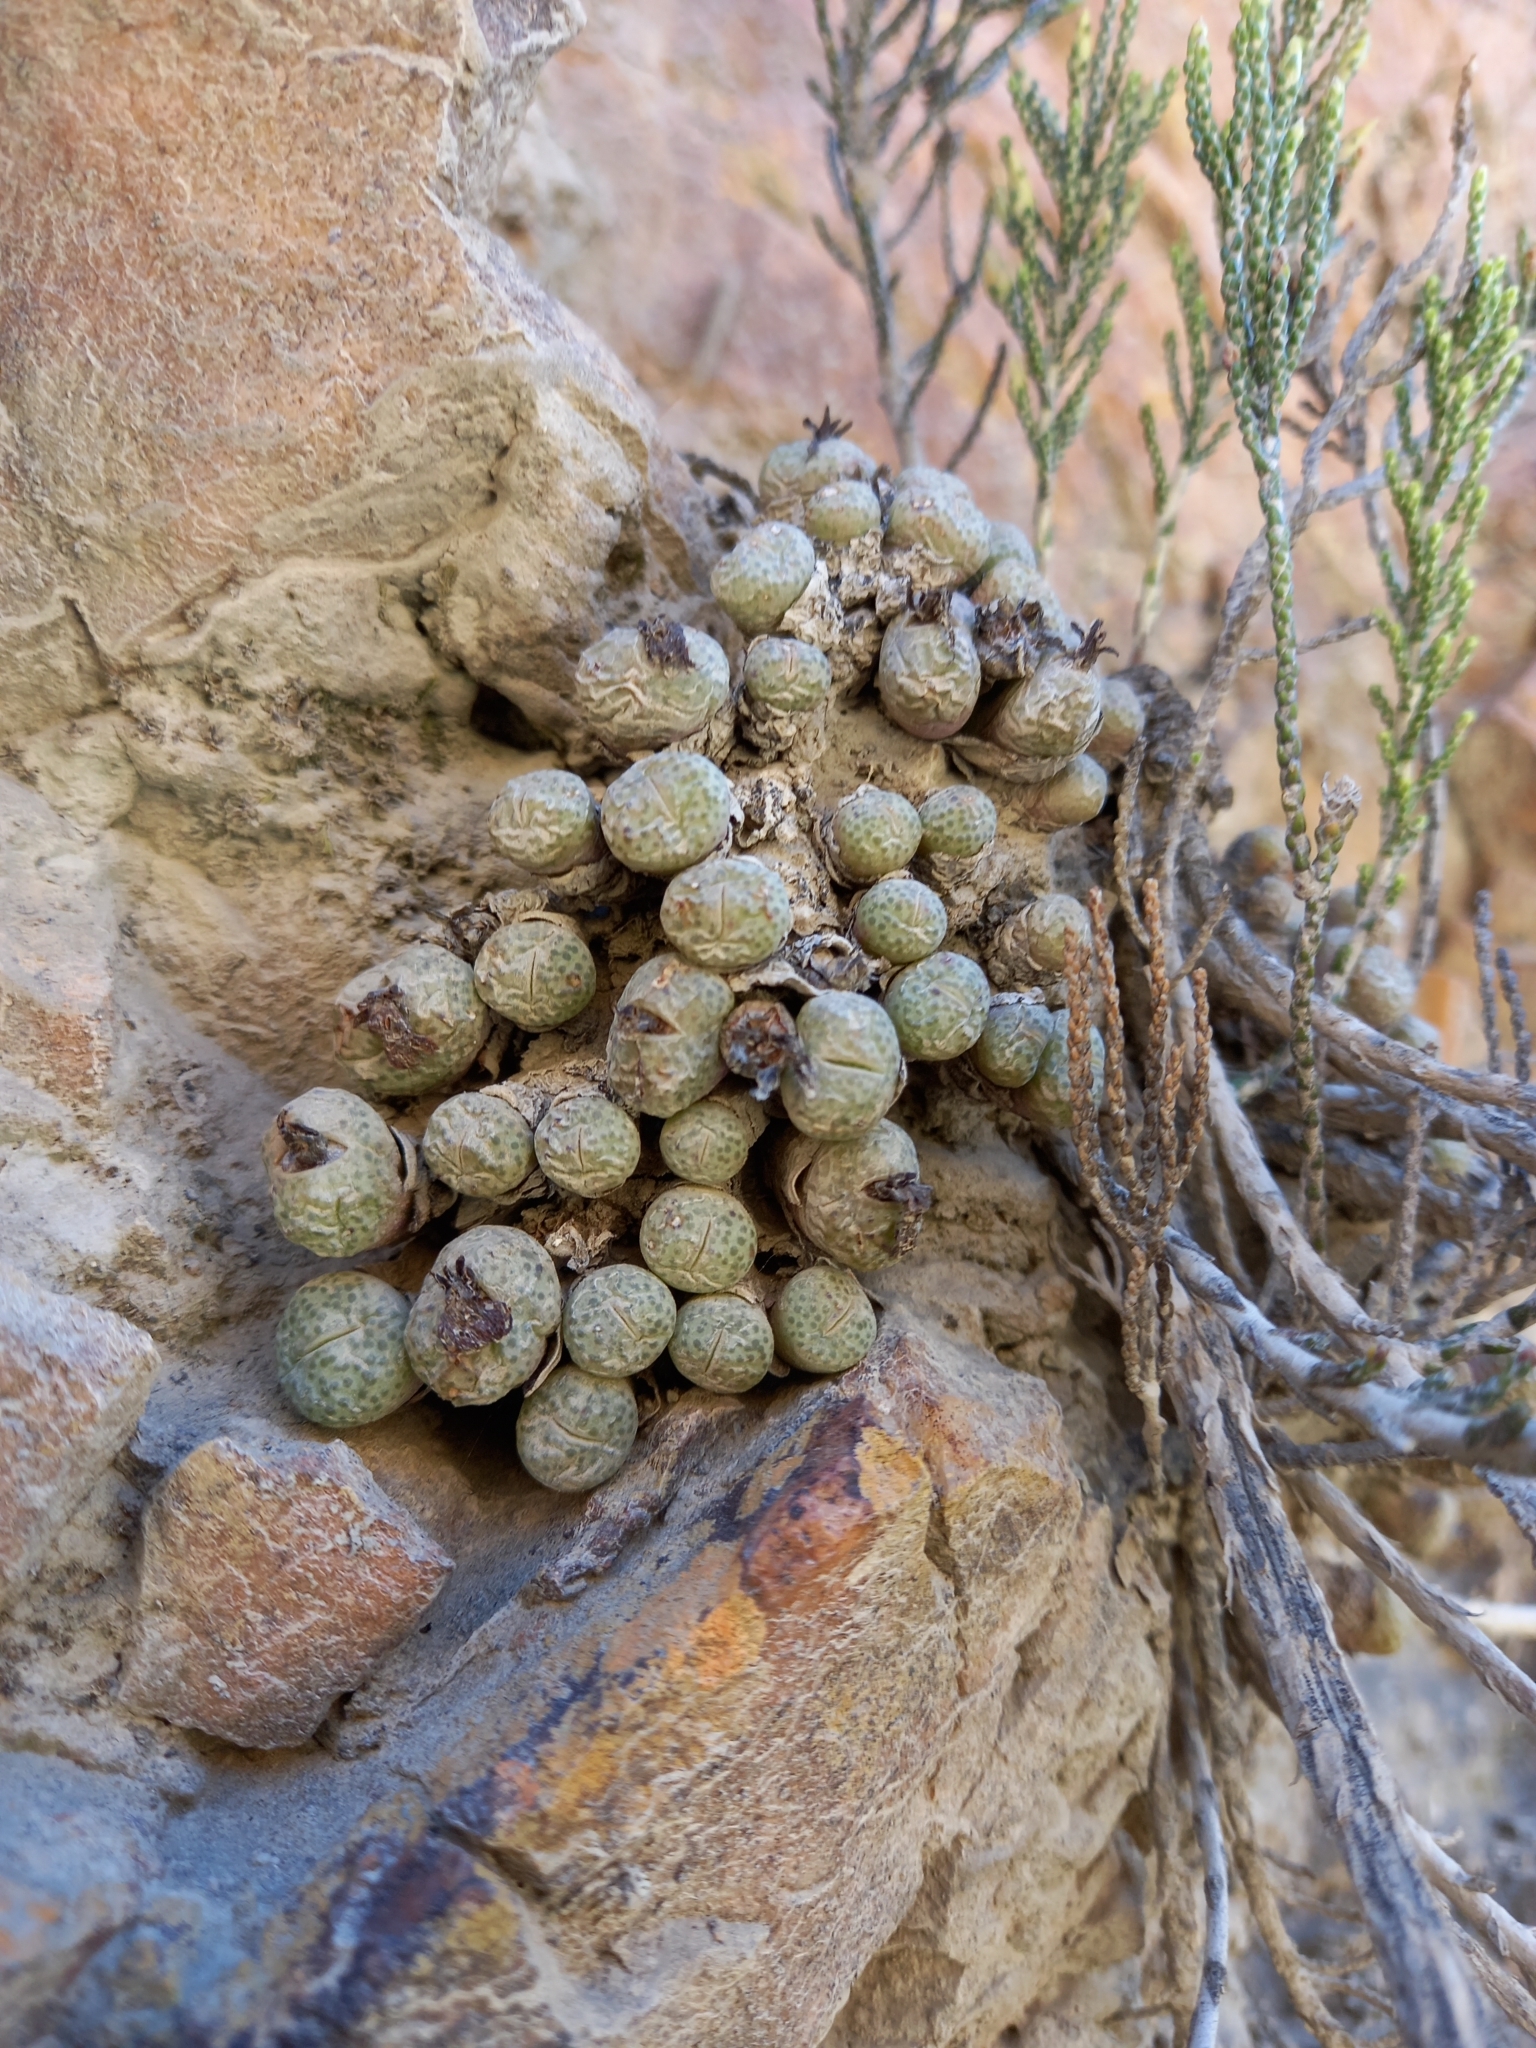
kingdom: Plantae
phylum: Tracheophyta
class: Magnoliopsida
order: Caryophyllales
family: Aizoaceae
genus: Conophytum
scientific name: Conophytum truncatum
